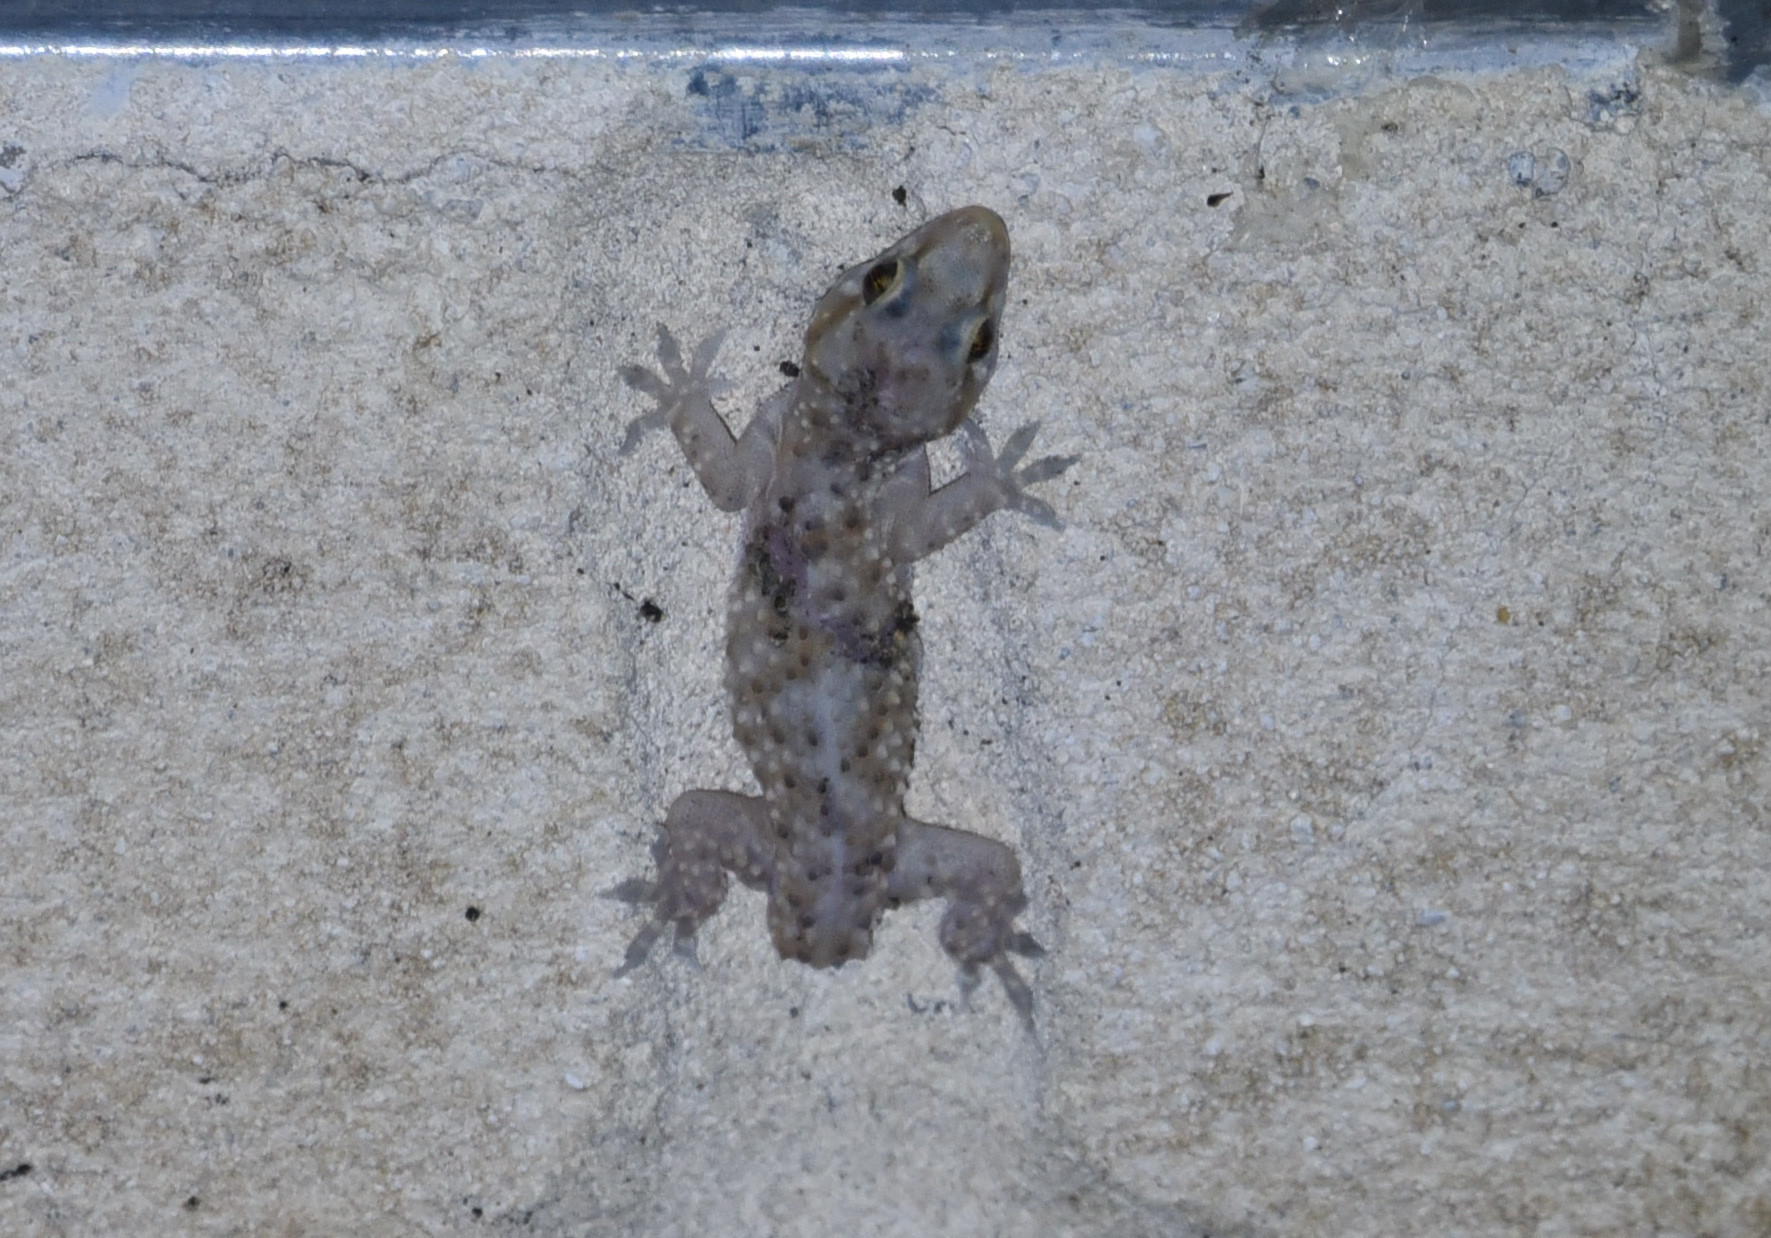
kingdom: Animalia
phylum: Chordata
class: Squamata
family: Gekkonidae
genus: Hemidactylus
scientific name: Hemidactylus turcicus
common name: Turkish gecko
